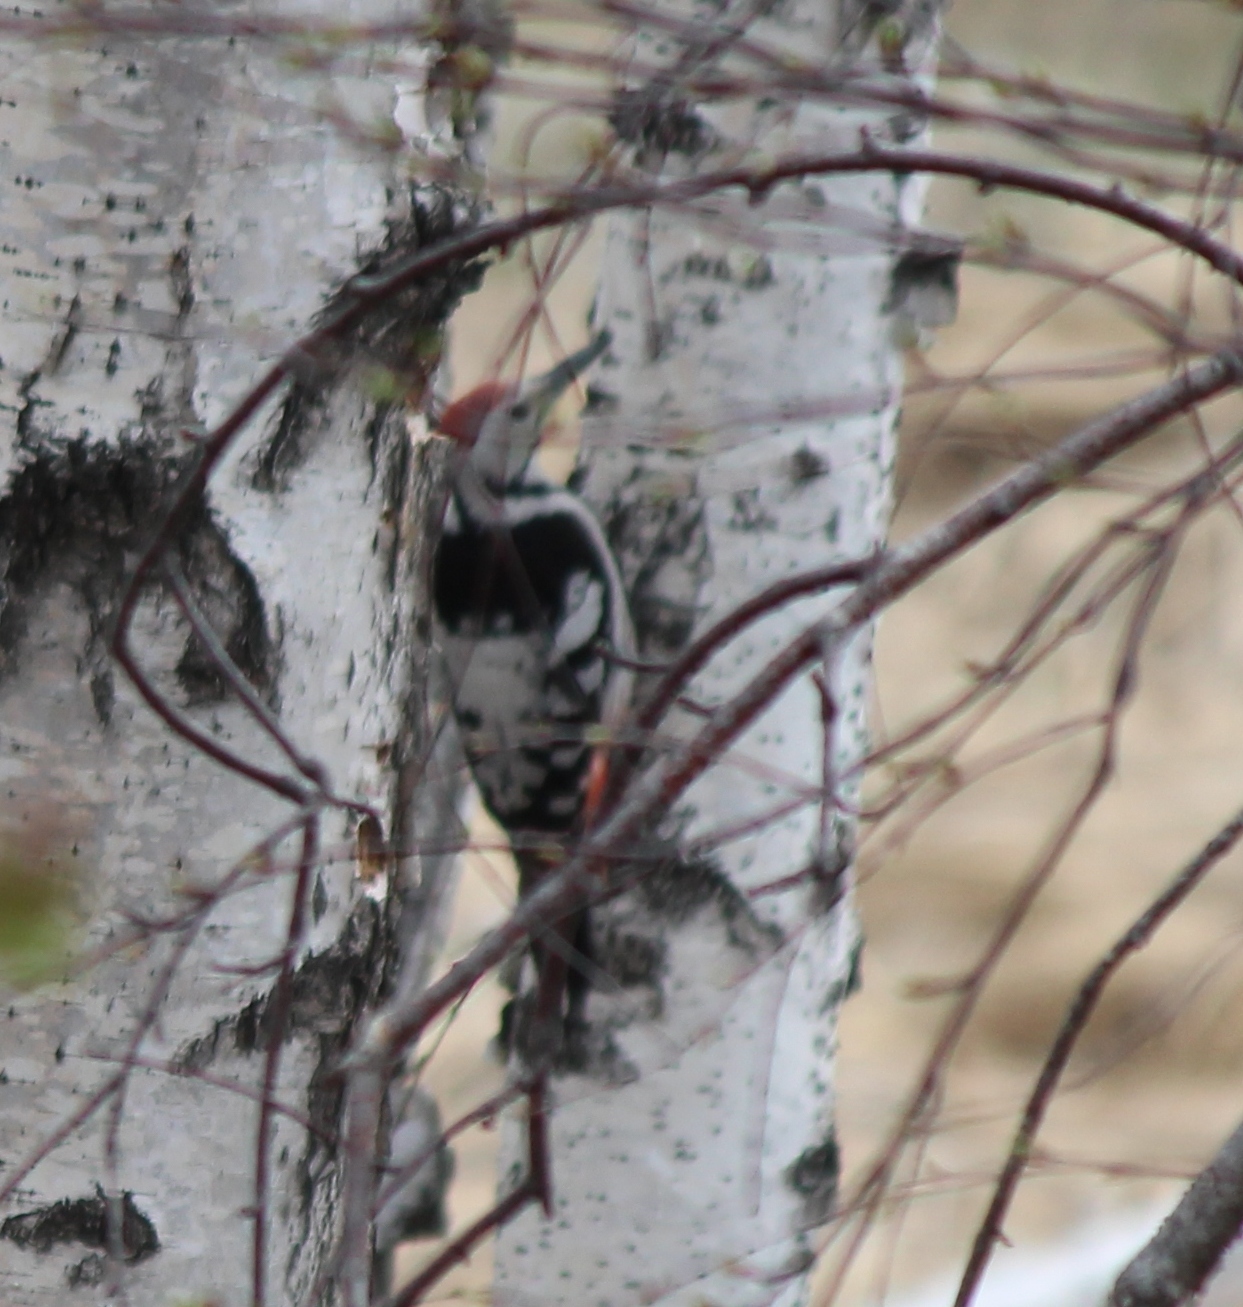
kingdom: Animalia
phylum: Chordata
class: Aves
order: Piciformes
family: Picidae
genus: Dendrocopos
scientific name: Dendrocopos leucotos
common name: White-backed woodpecker
